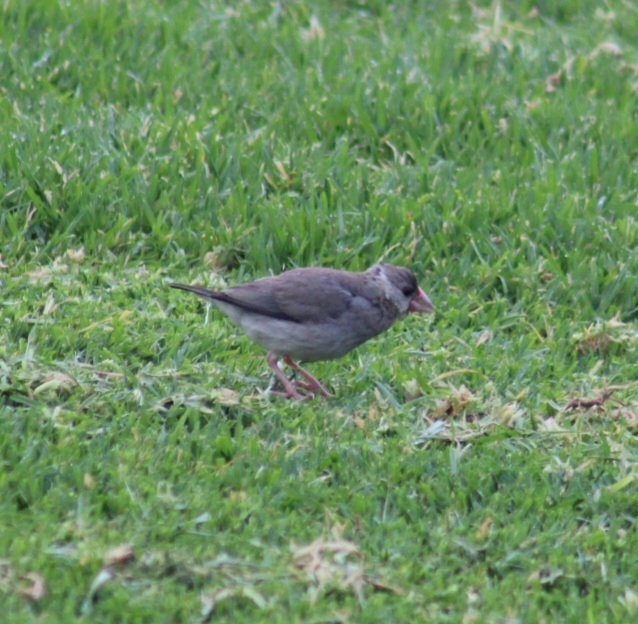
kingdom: Animalia
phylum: Chordata
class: Aves
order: Passeriformes
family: Estrildidae
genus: Lonchura
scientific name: Lonchura oryzivora
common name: Java sparrow
